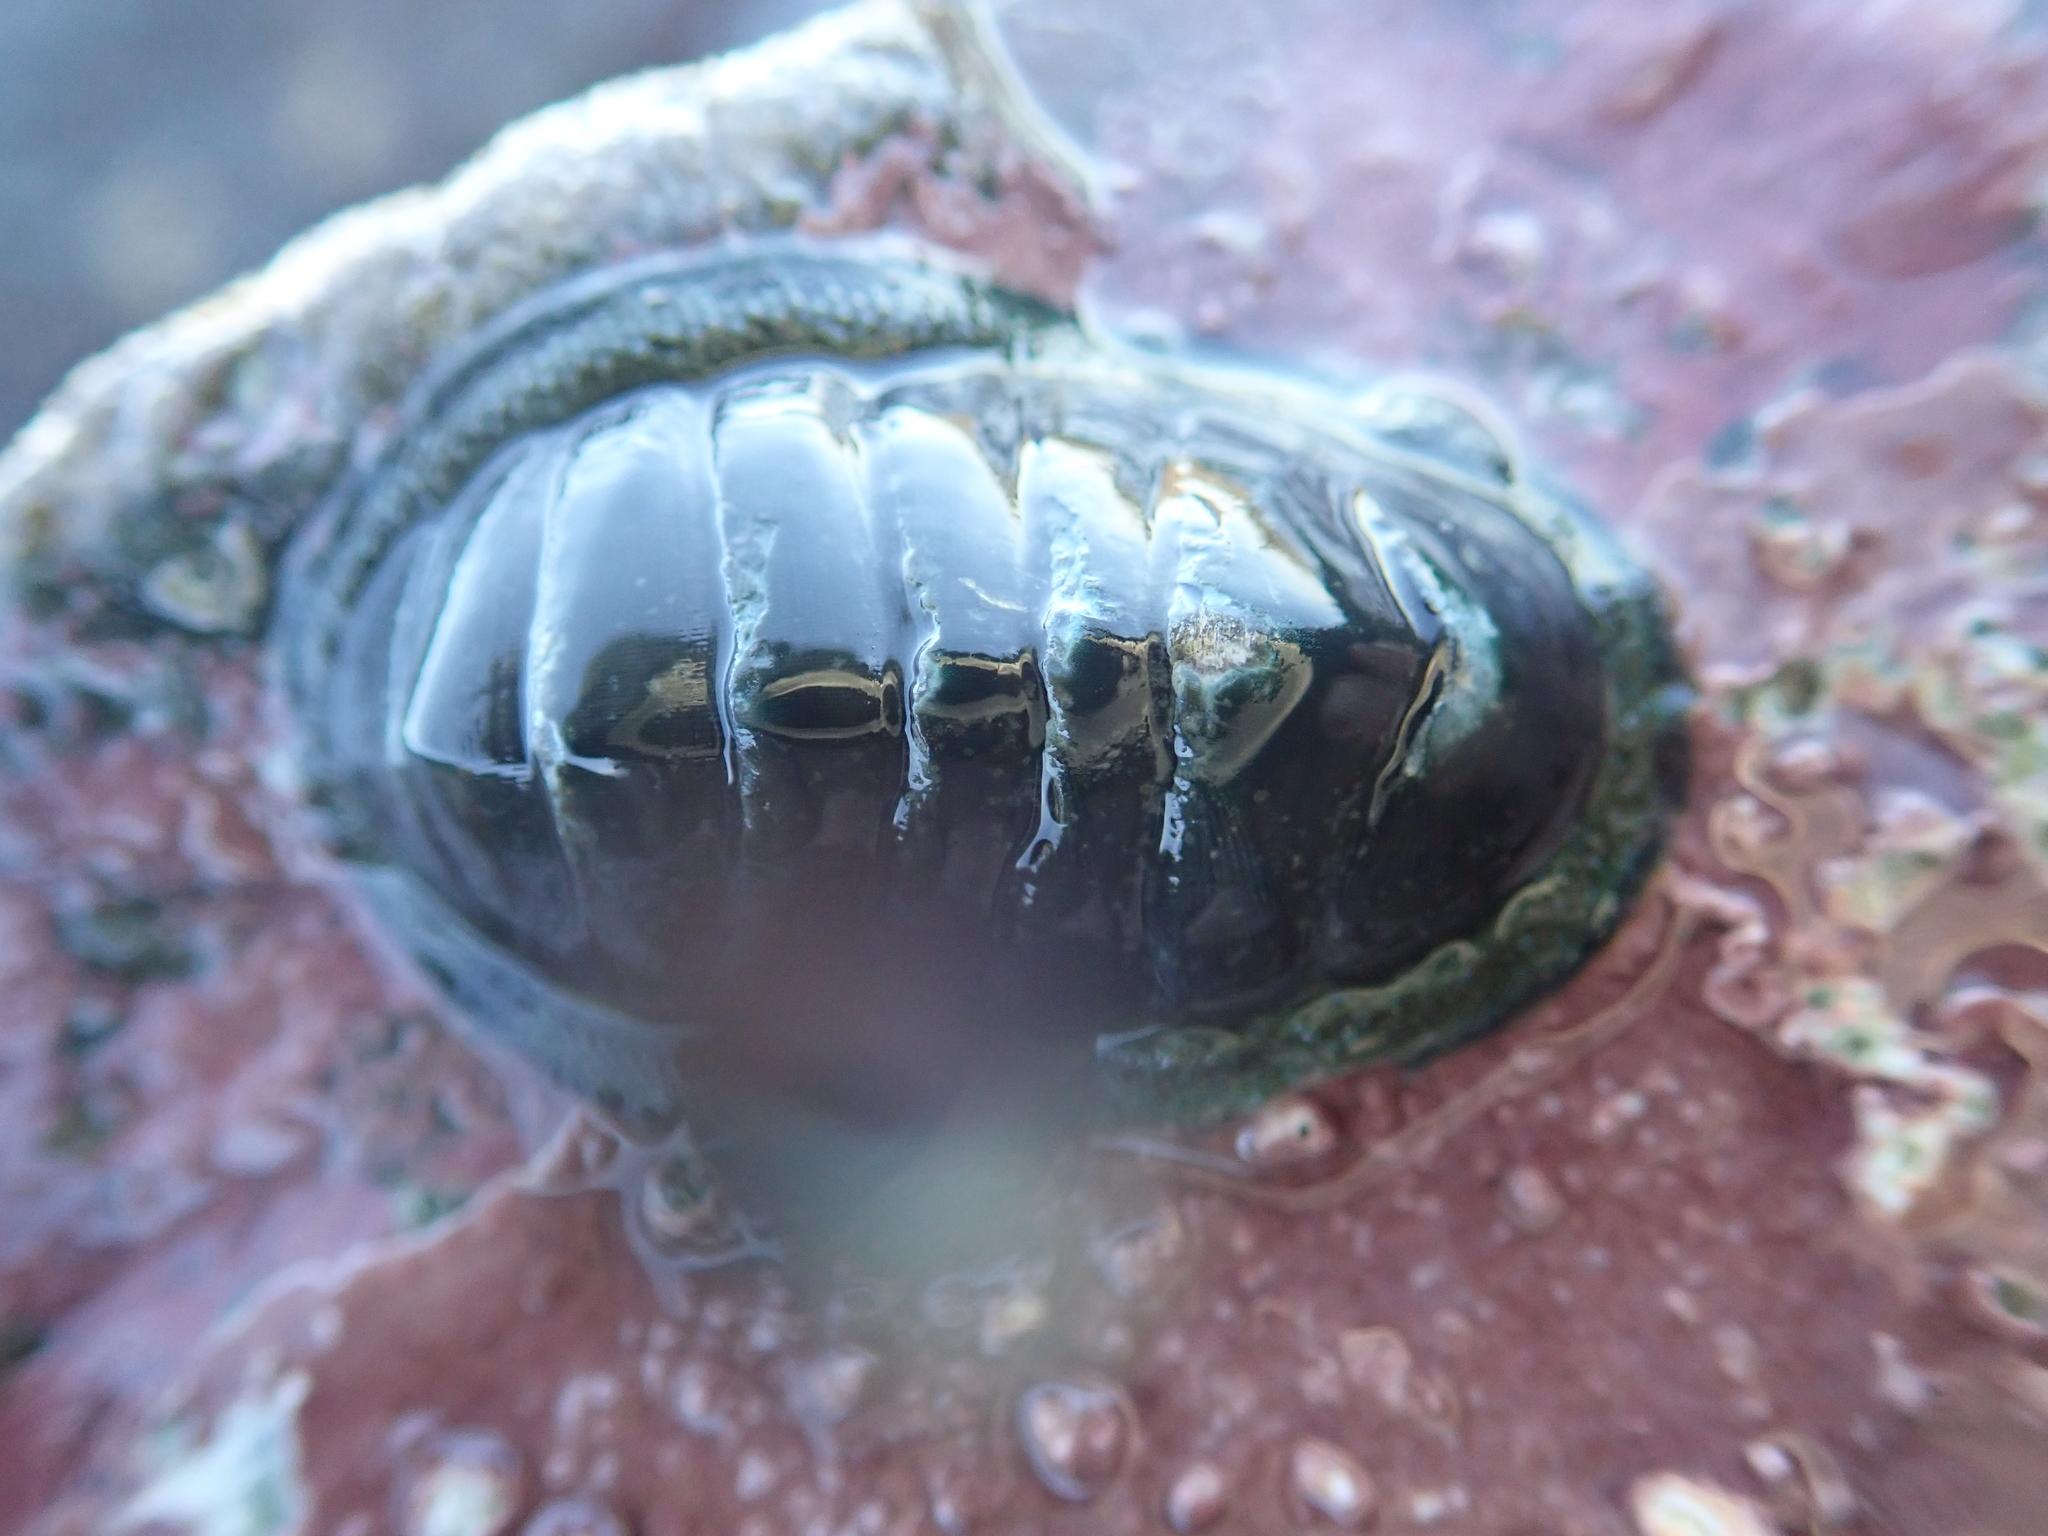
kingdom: Animalia
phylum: Mollusca
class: Polyplacophora
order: Chitonida
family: Chitonidae
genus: Chiton
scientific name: Chiton glaucus
